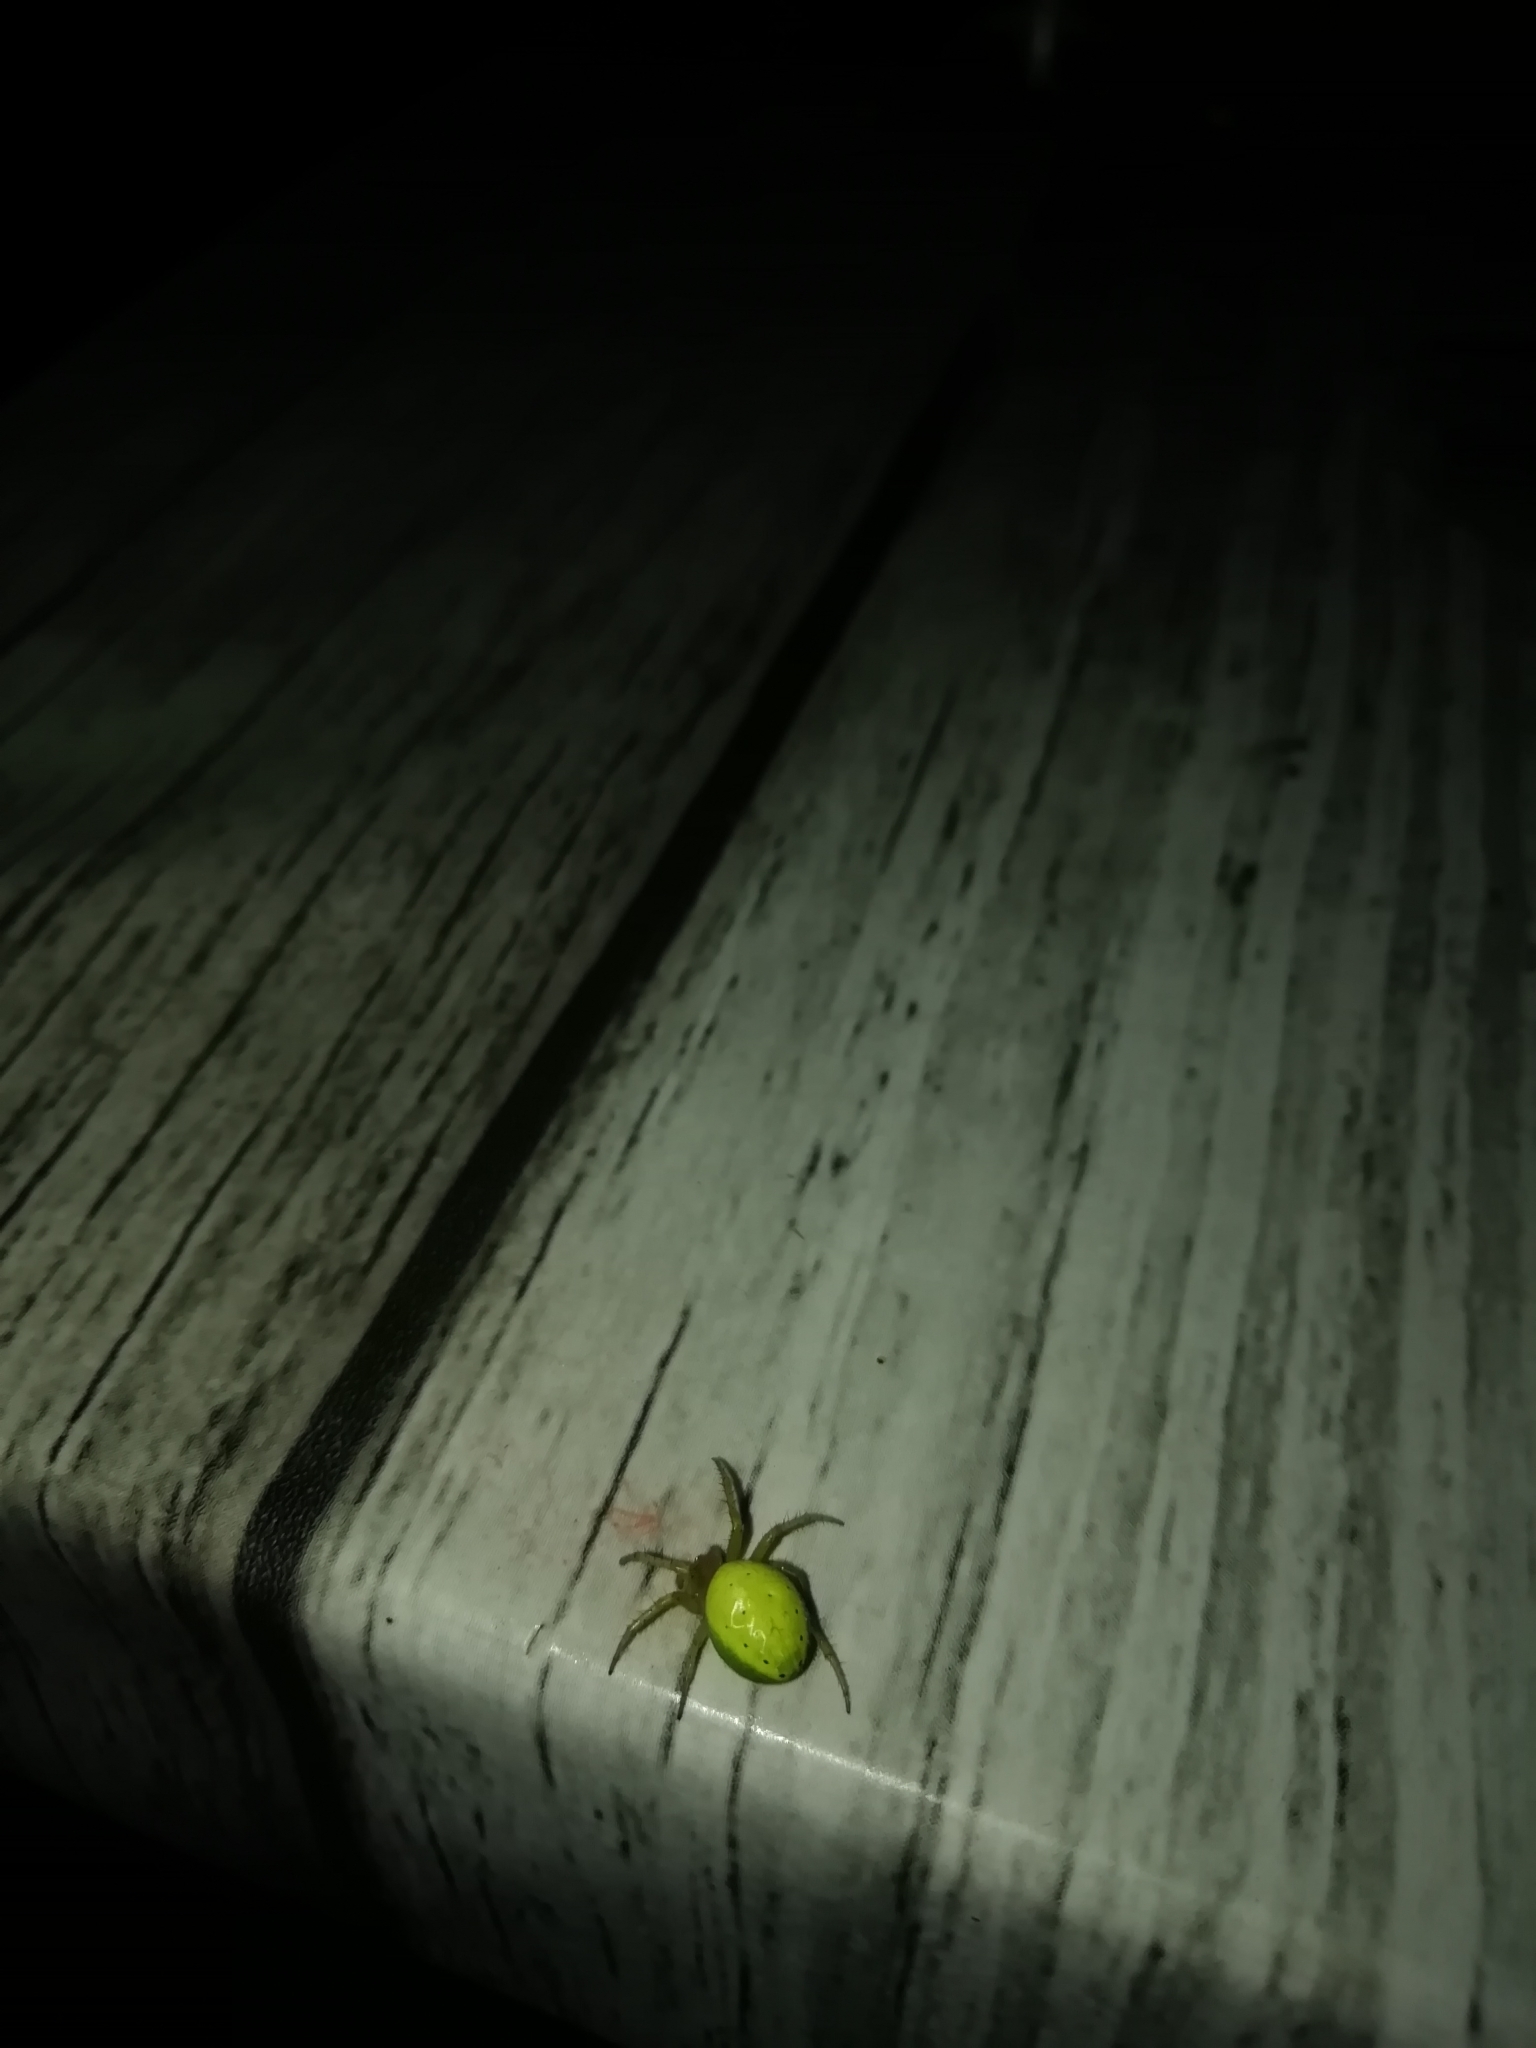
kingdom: Animalia
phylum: Arthropoda
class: Arachnida
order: Araneae
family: Araneidae
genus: Araniella
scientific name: Araniella cucurbitina
